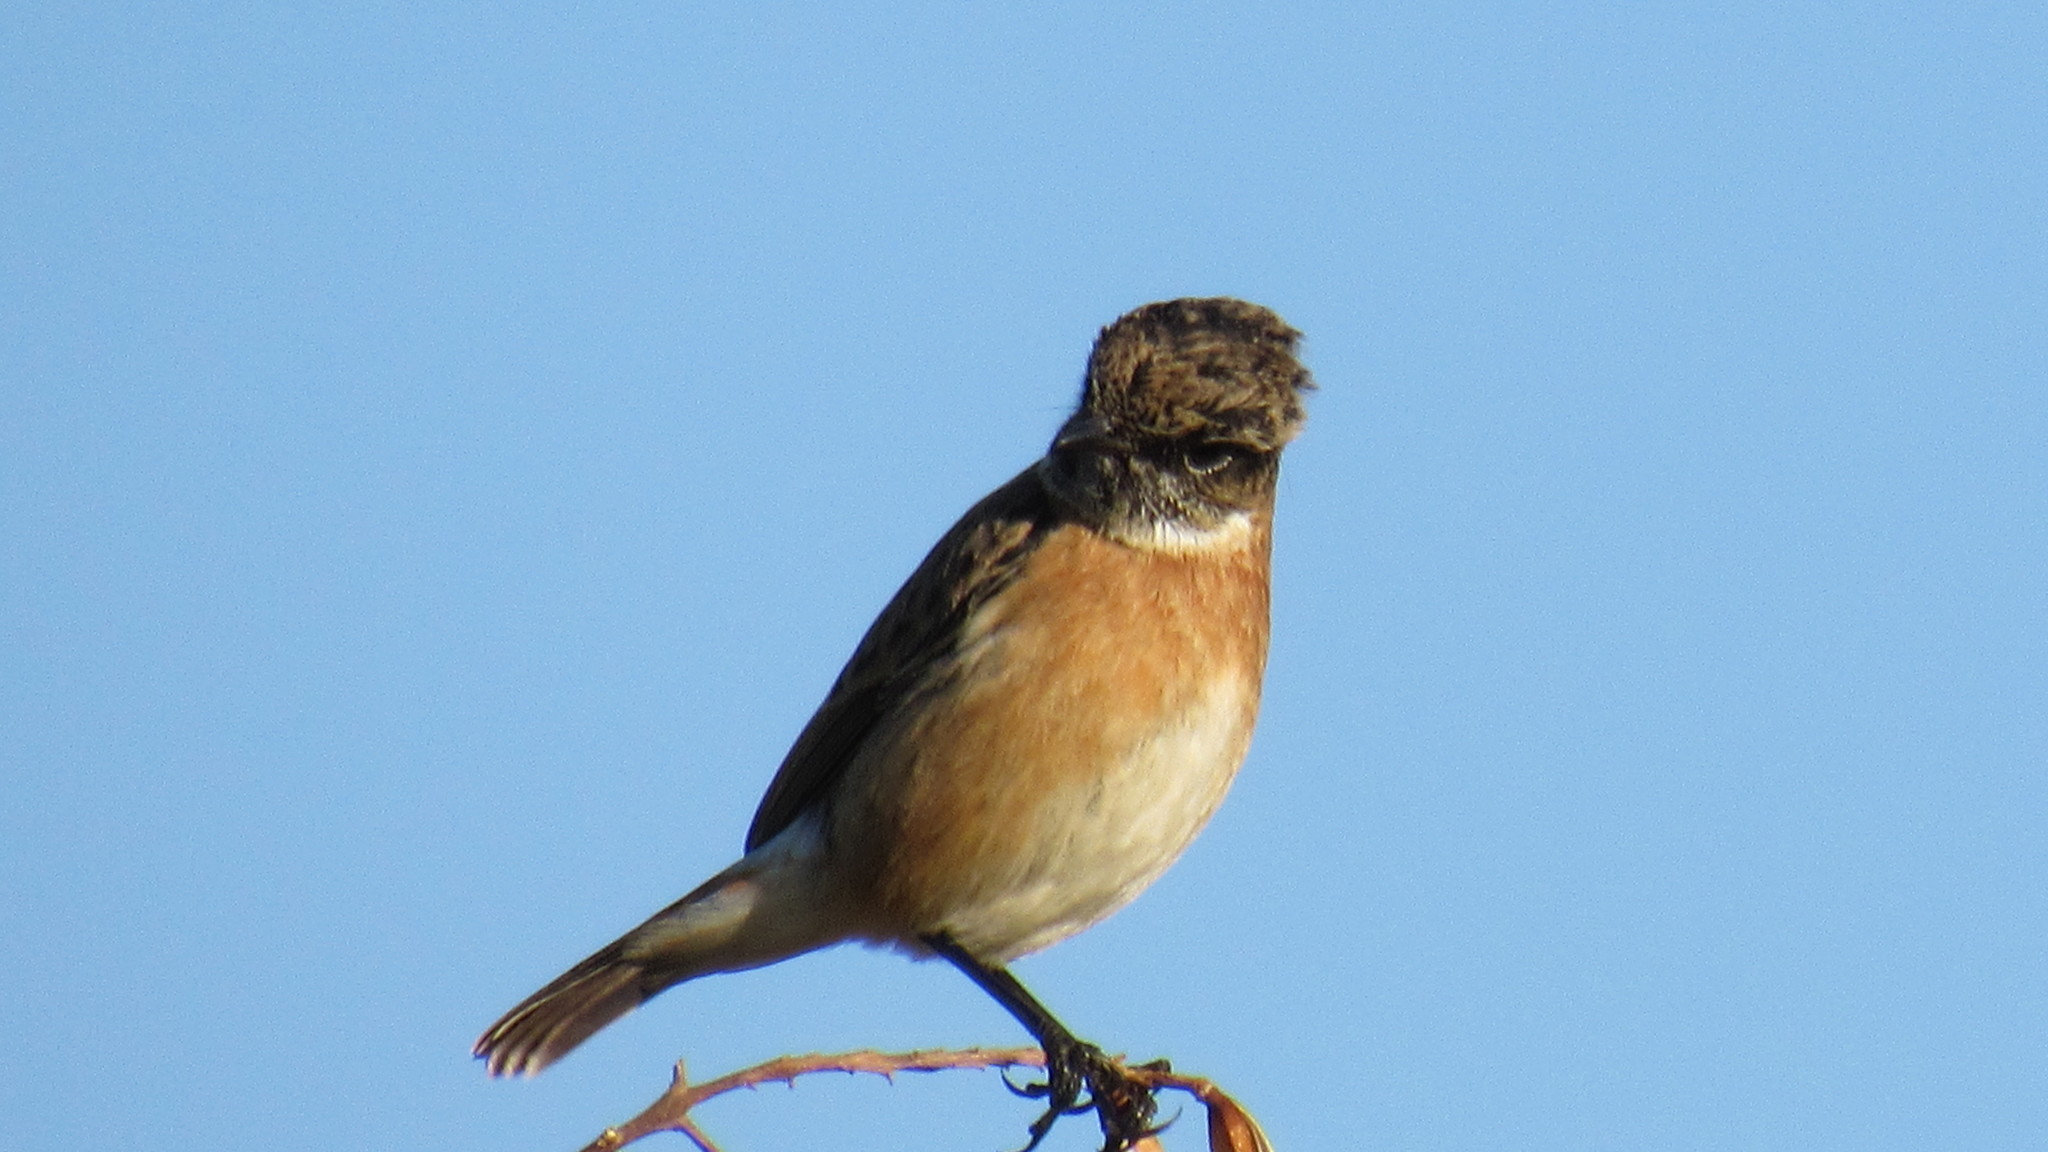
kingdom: Animalia
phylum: Chordata
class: Aves
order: Passeriformes
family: Muscicapidae
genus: Saxicola
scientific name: Saxicola rubicola
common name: European stonechat
